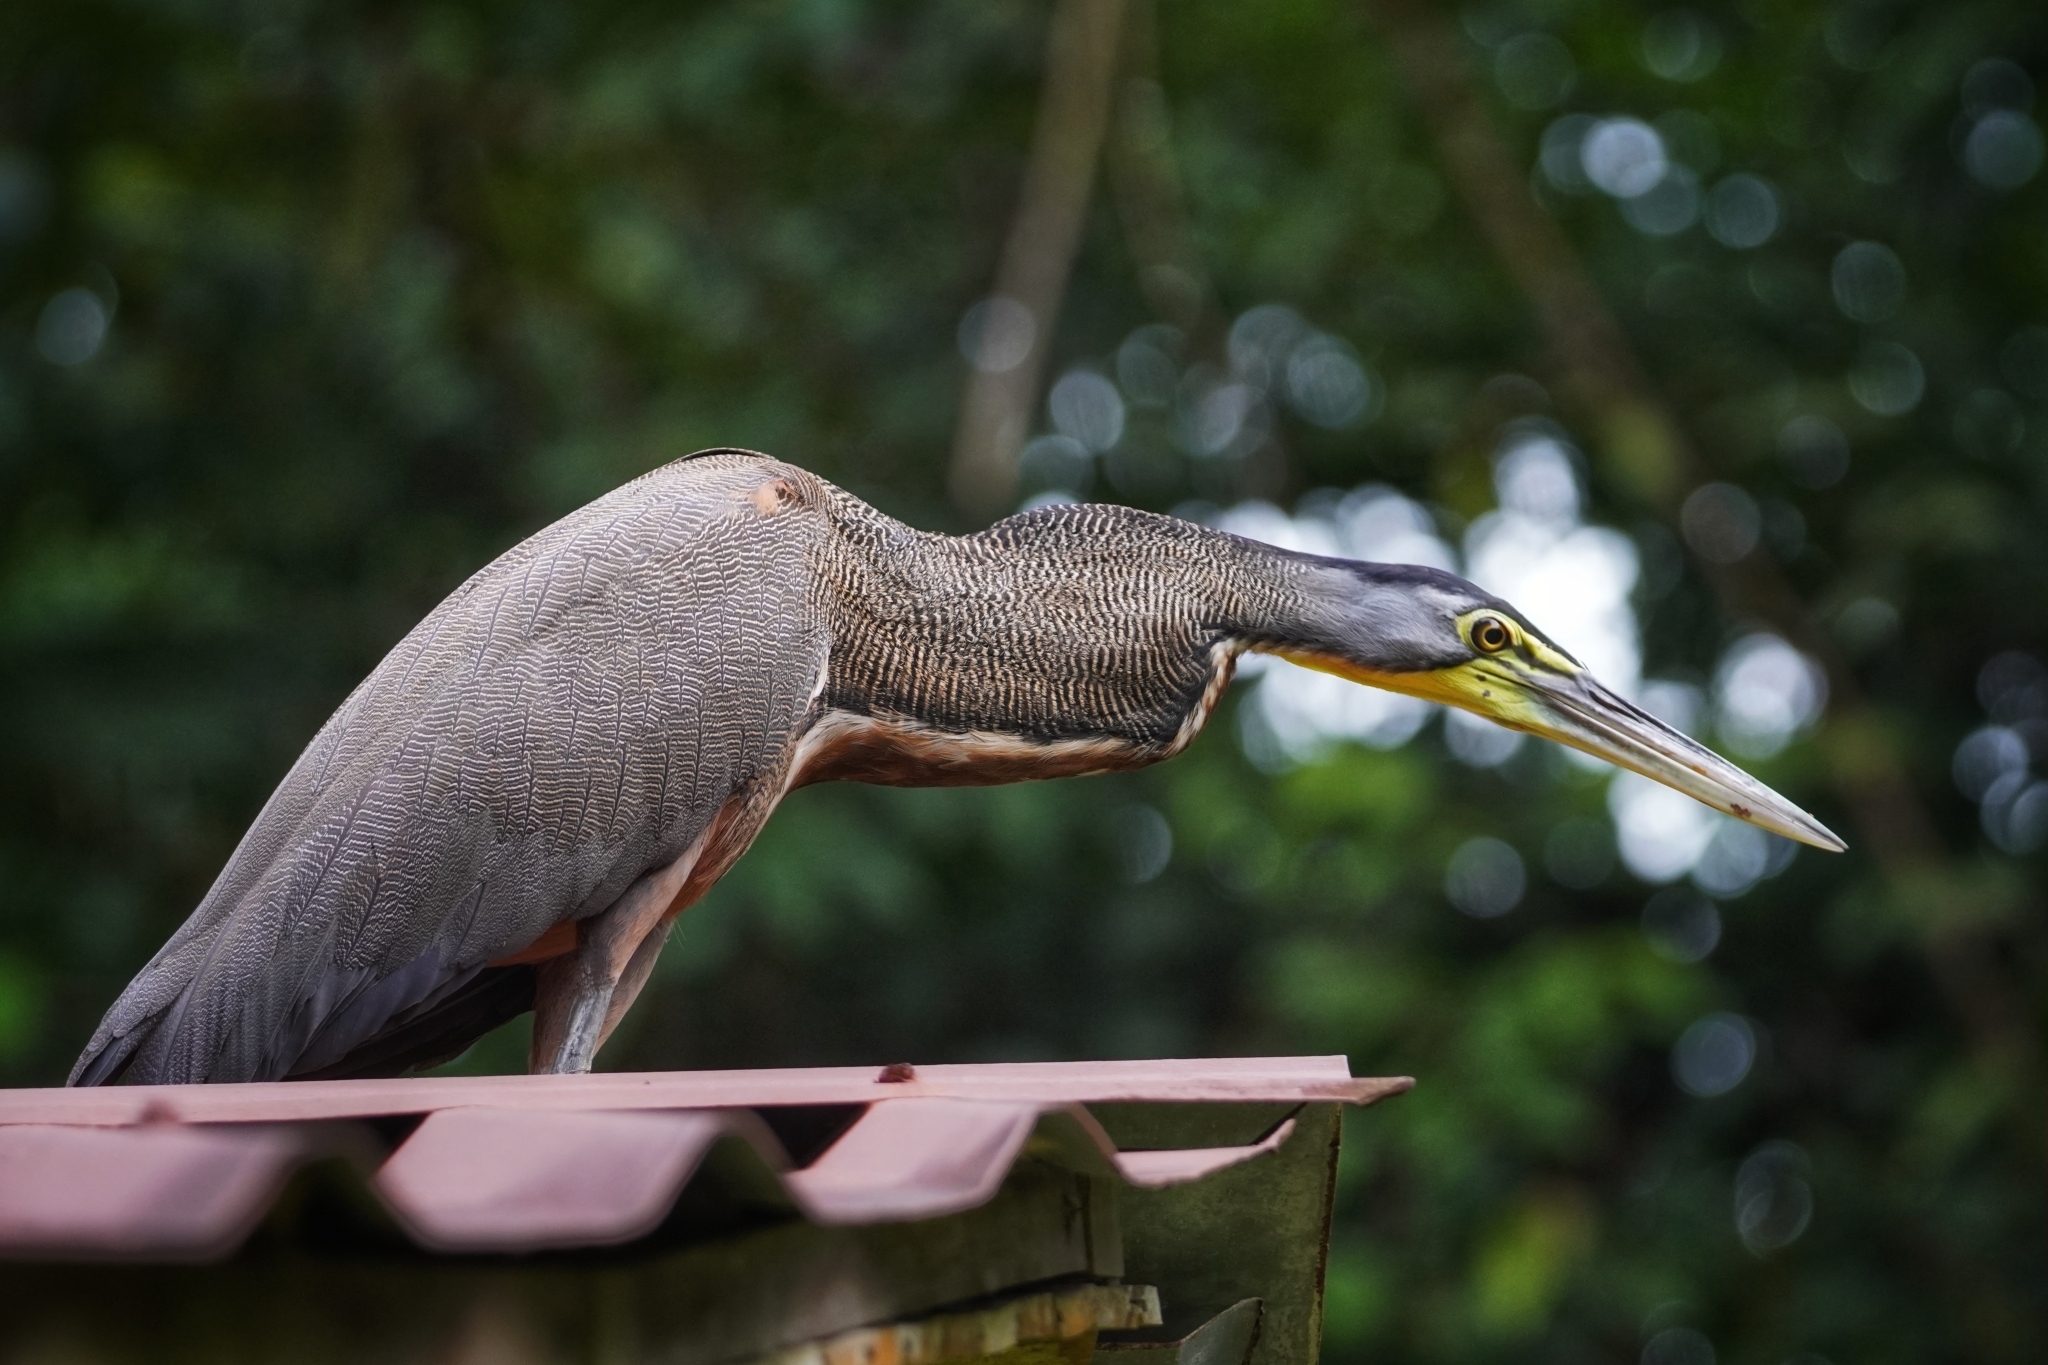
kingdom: Animalia
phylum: Chordata
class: Aves
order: Pelecaniformes
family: Ardeidae
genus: Tigrisoma
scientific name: Tigrisoma mexicanum
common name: Bare-throated tiger-heron
